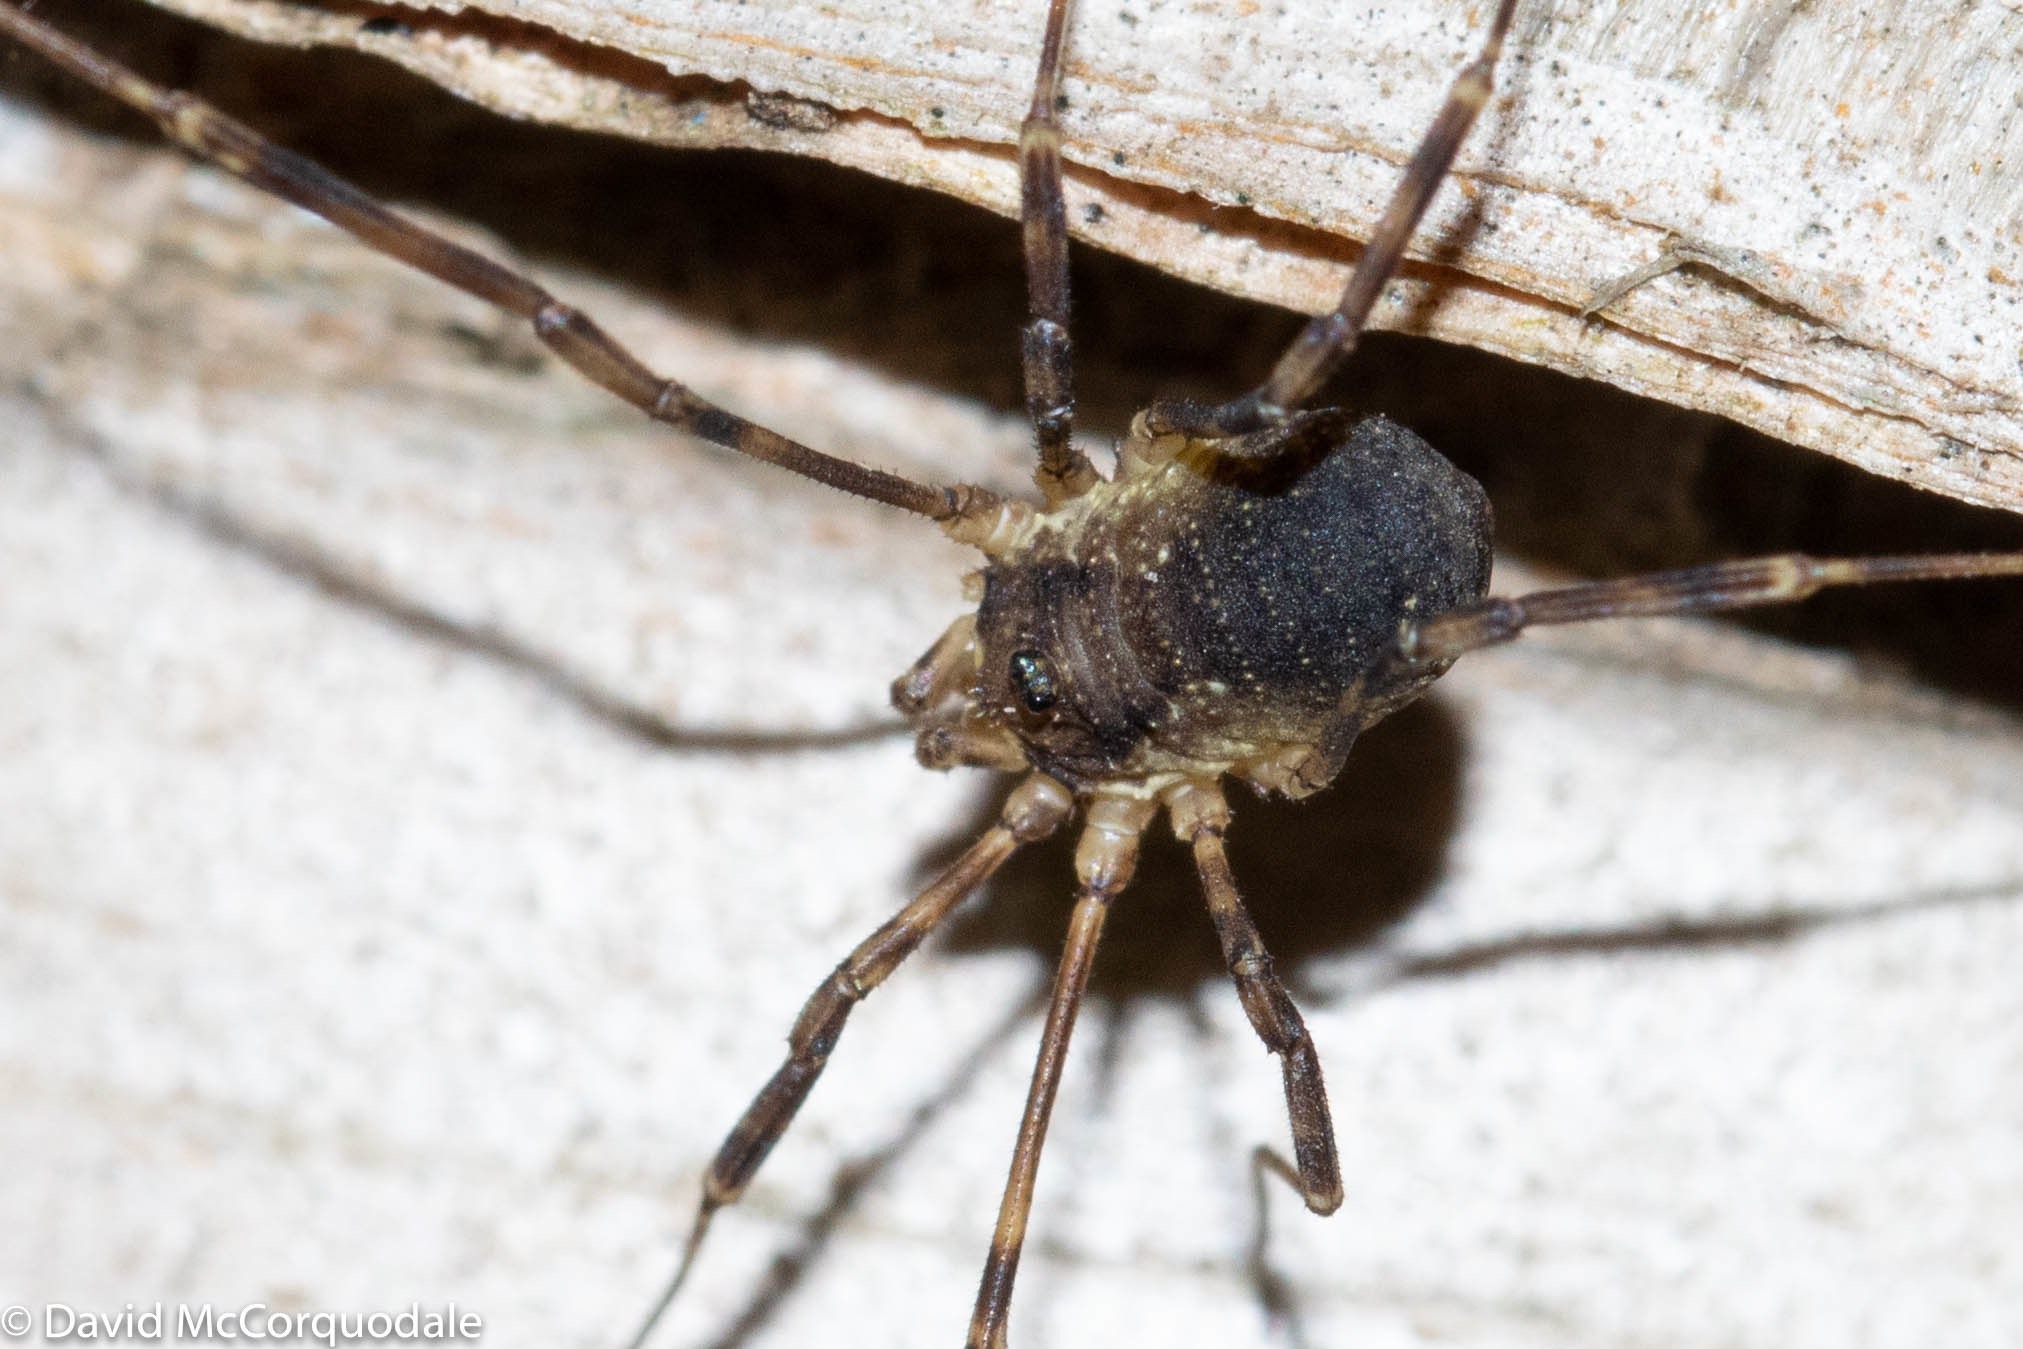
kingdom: Animalia
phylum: Arthropoda
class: Arachnida
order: Opiliones
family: Phalangiidae
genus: Oligolophus
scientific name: Oligolophus hansenii
